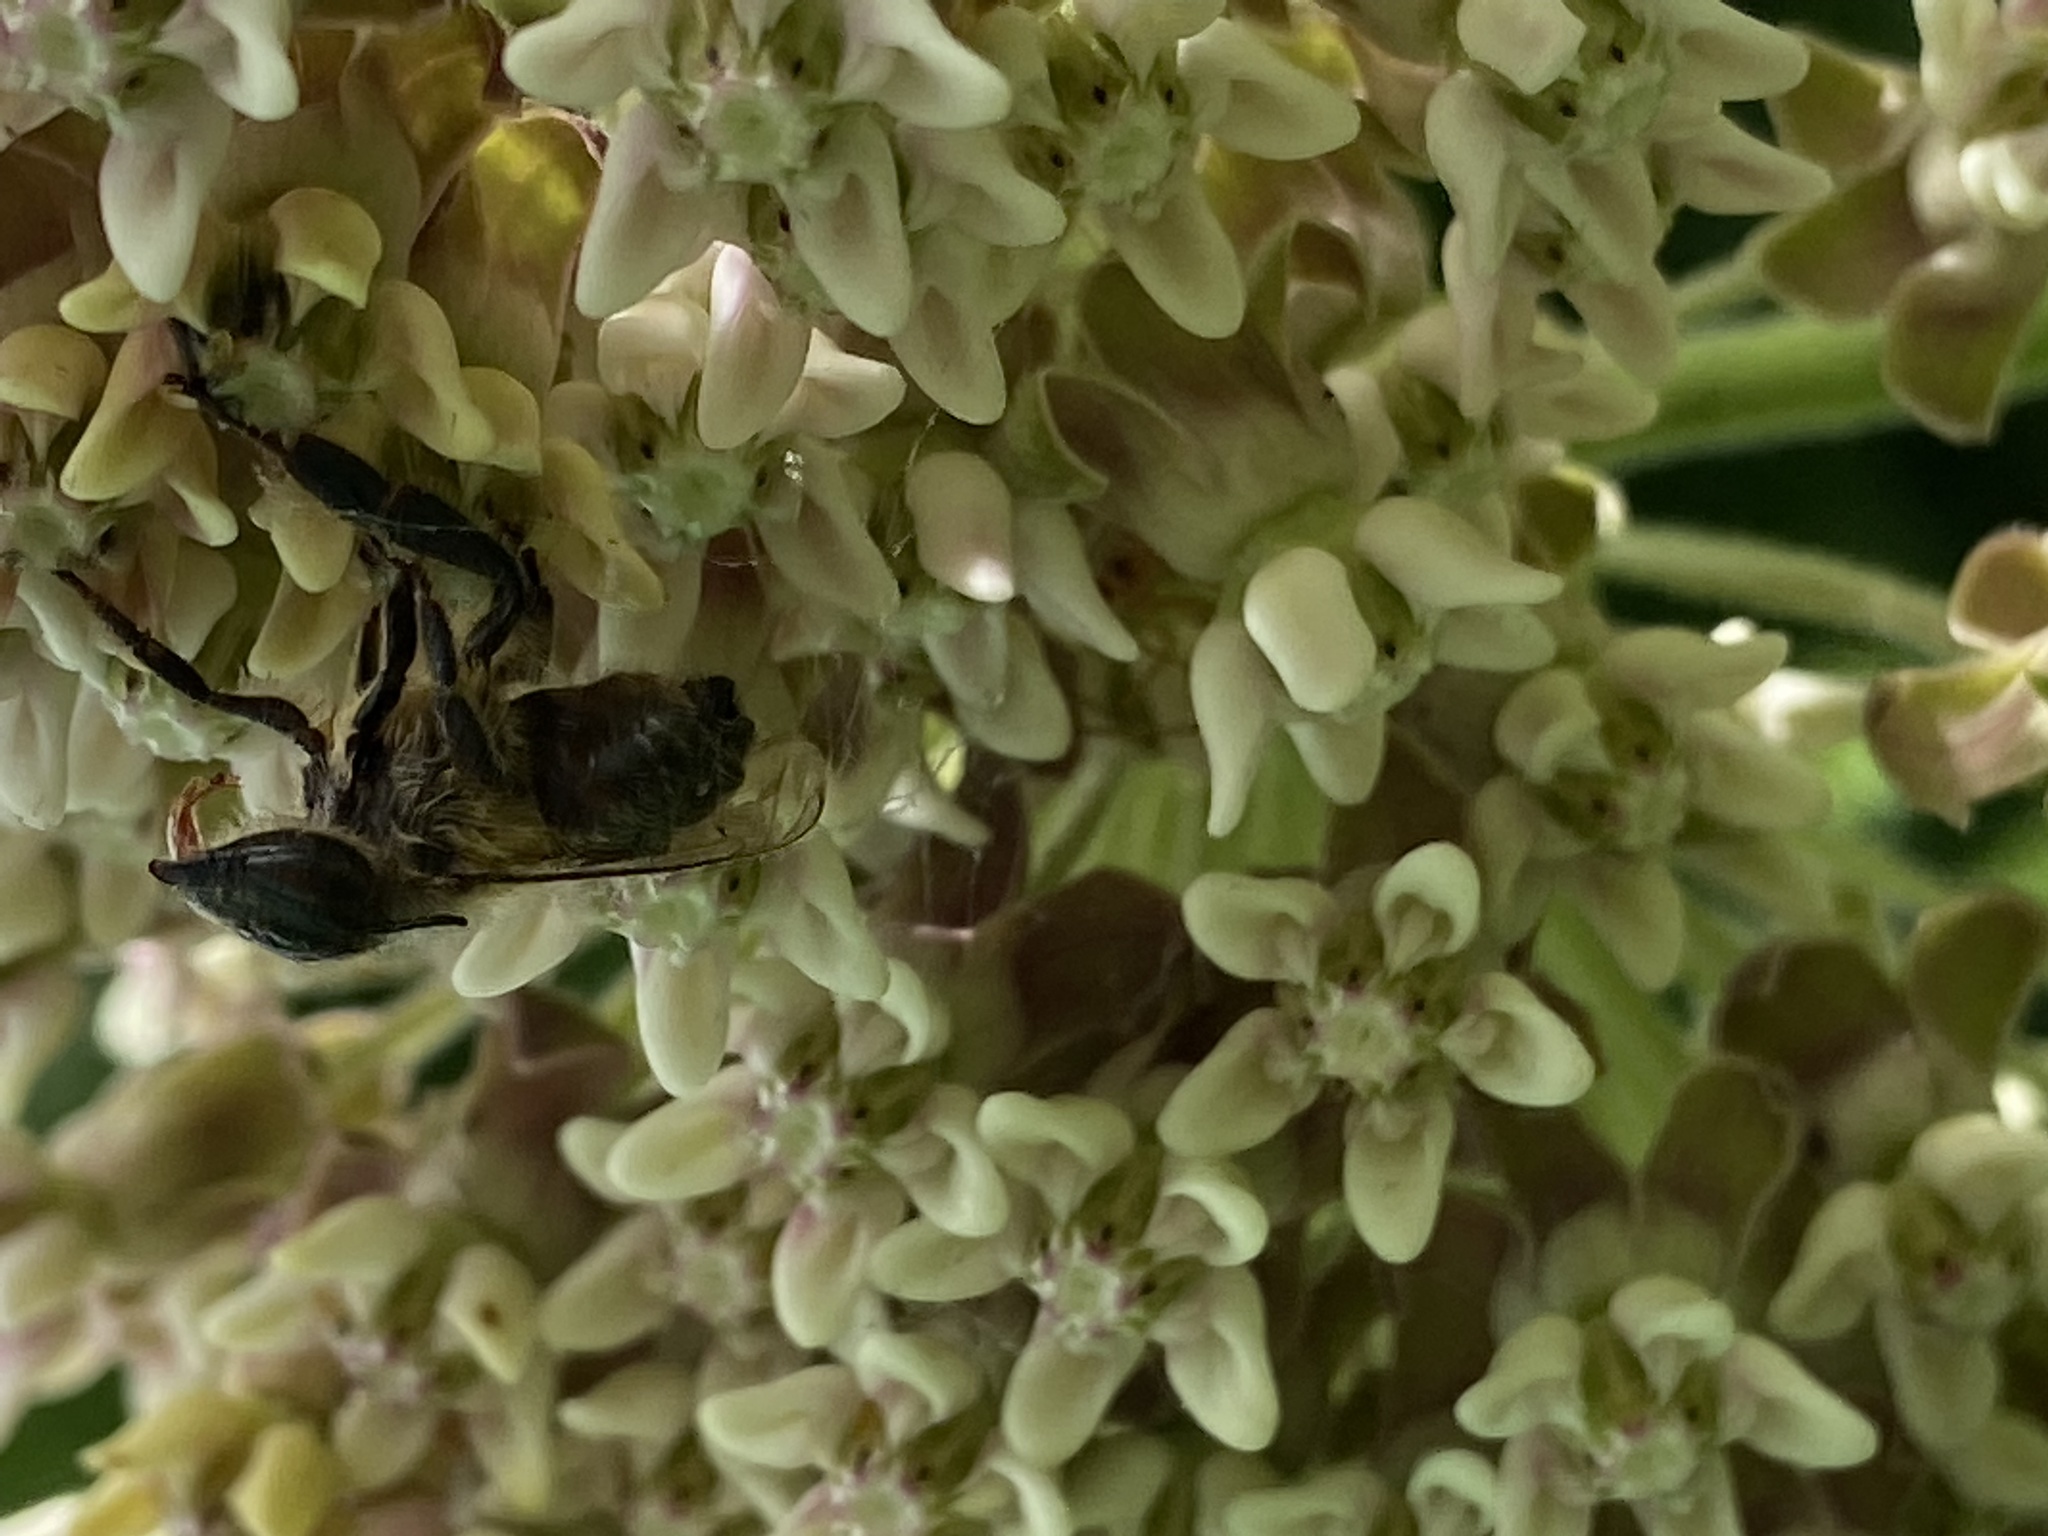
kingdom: Animalia
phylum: Arthropoda
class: Insecta
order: Hymenoptera
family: Apidae
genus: Apis
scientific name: Apis mellifera
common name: Honey bee
